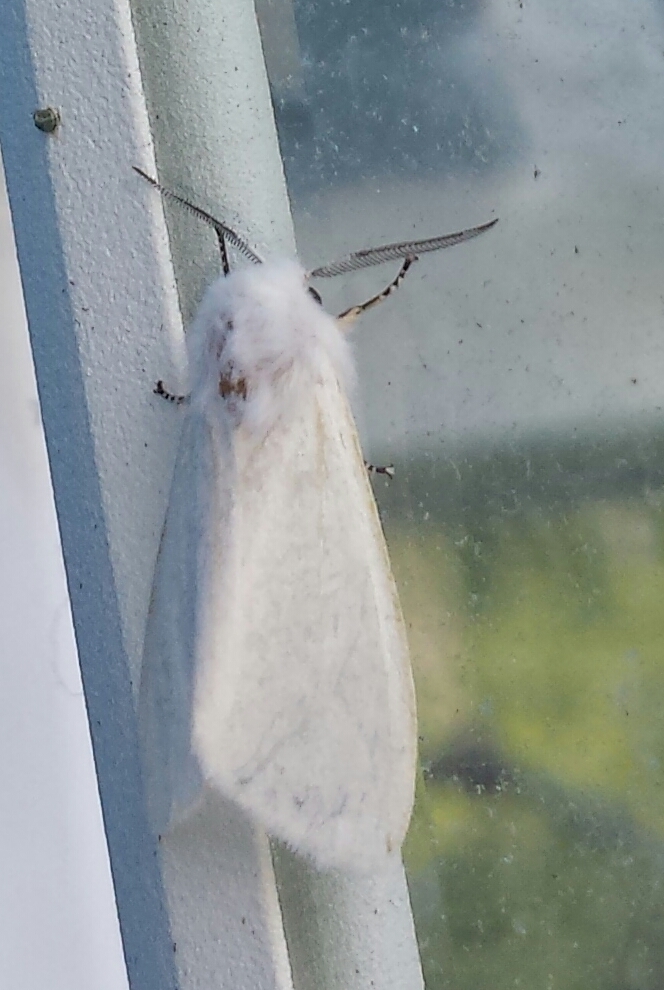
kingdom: Animalia
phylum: Arthropoda
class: Insecta
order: Lepidoptera
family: Erebidae
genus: Hyphantria
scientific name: Hyphantria cunea
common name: American white moth
